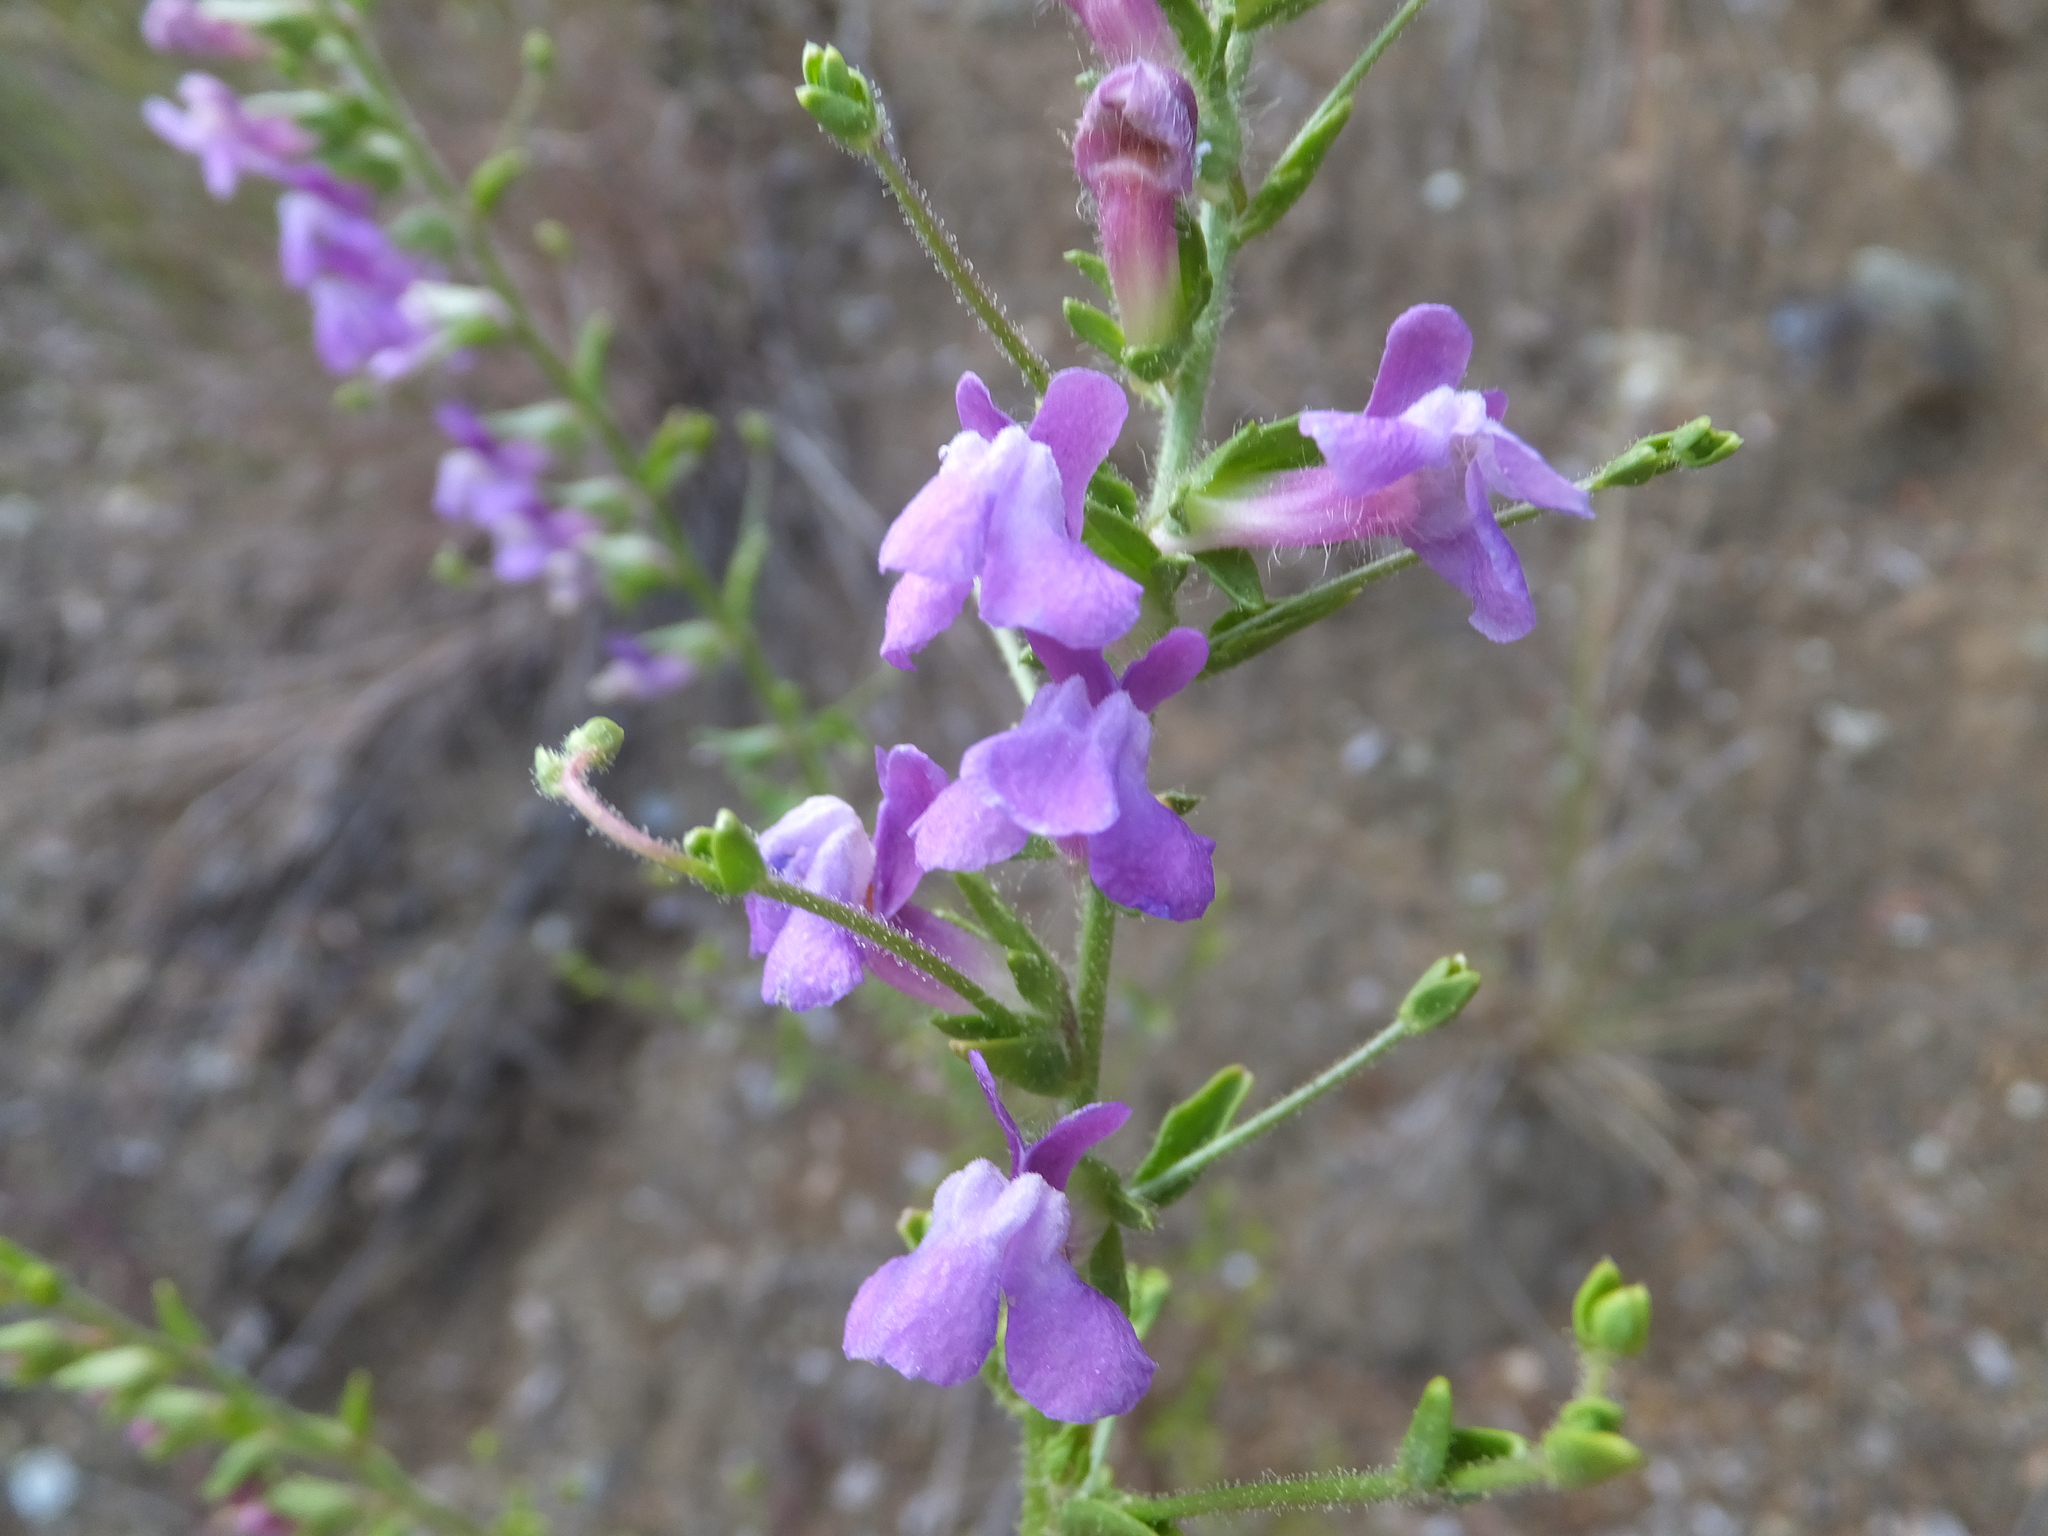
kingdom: Plantae
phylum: Tracheophyta
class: Magnoliopsida
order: Lamiales
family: Plantaginaceae
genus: Sairocarpus
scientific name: Sairocarpus vexillocalyculatus
